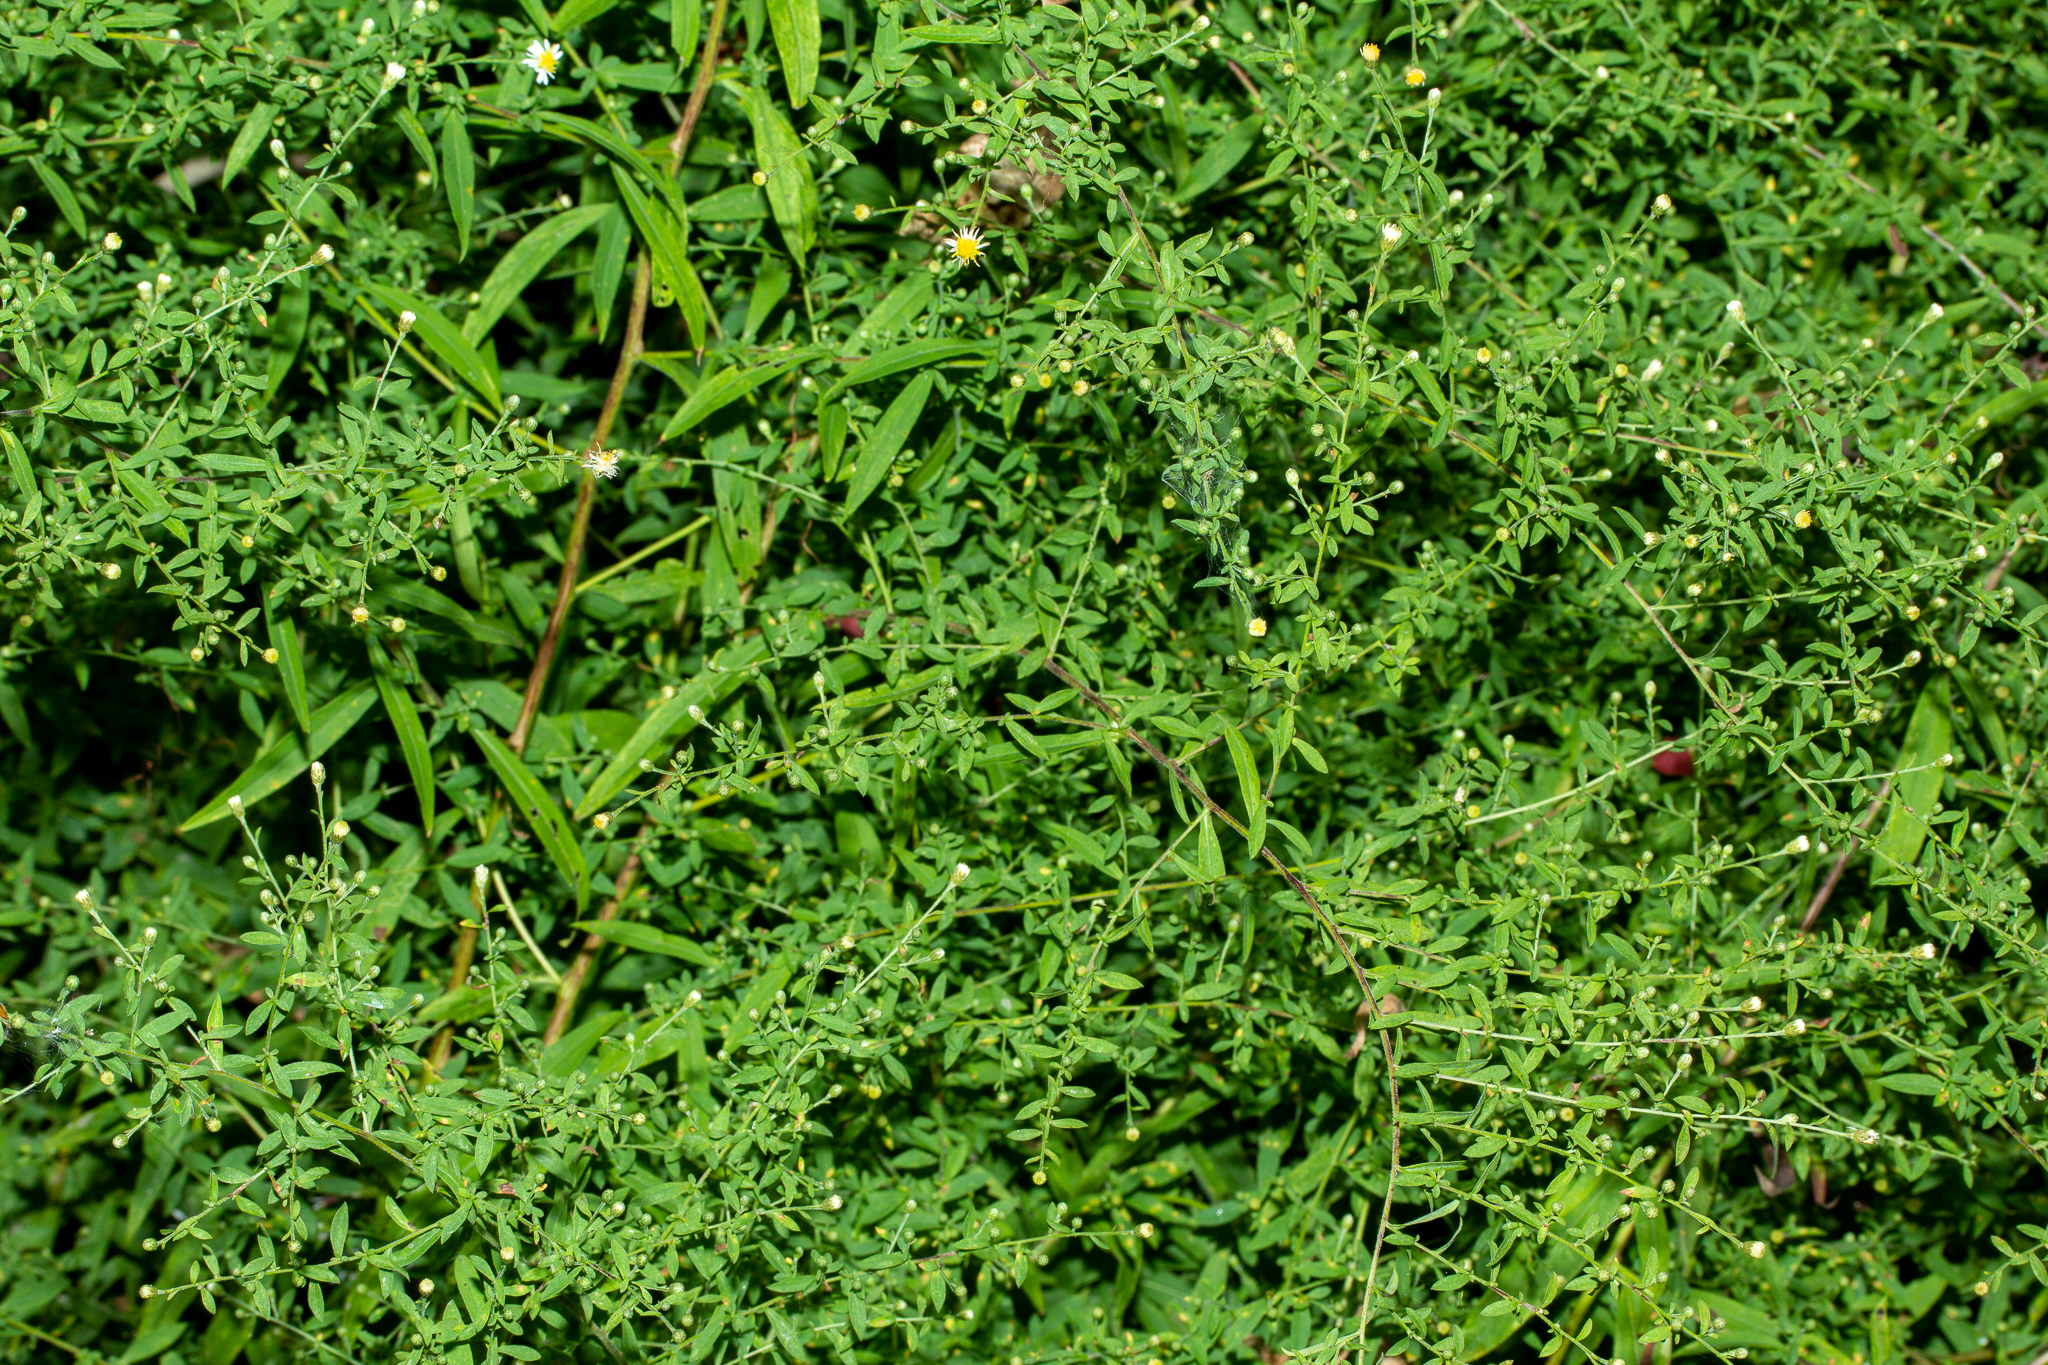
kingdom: Plantae
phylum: Tracheophyta
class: Magnoliopsida
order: Asterales
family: Asteraceae
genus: Symphyotrichum
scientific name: Symphyotrichum ontarionis
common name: Bottomland aster
